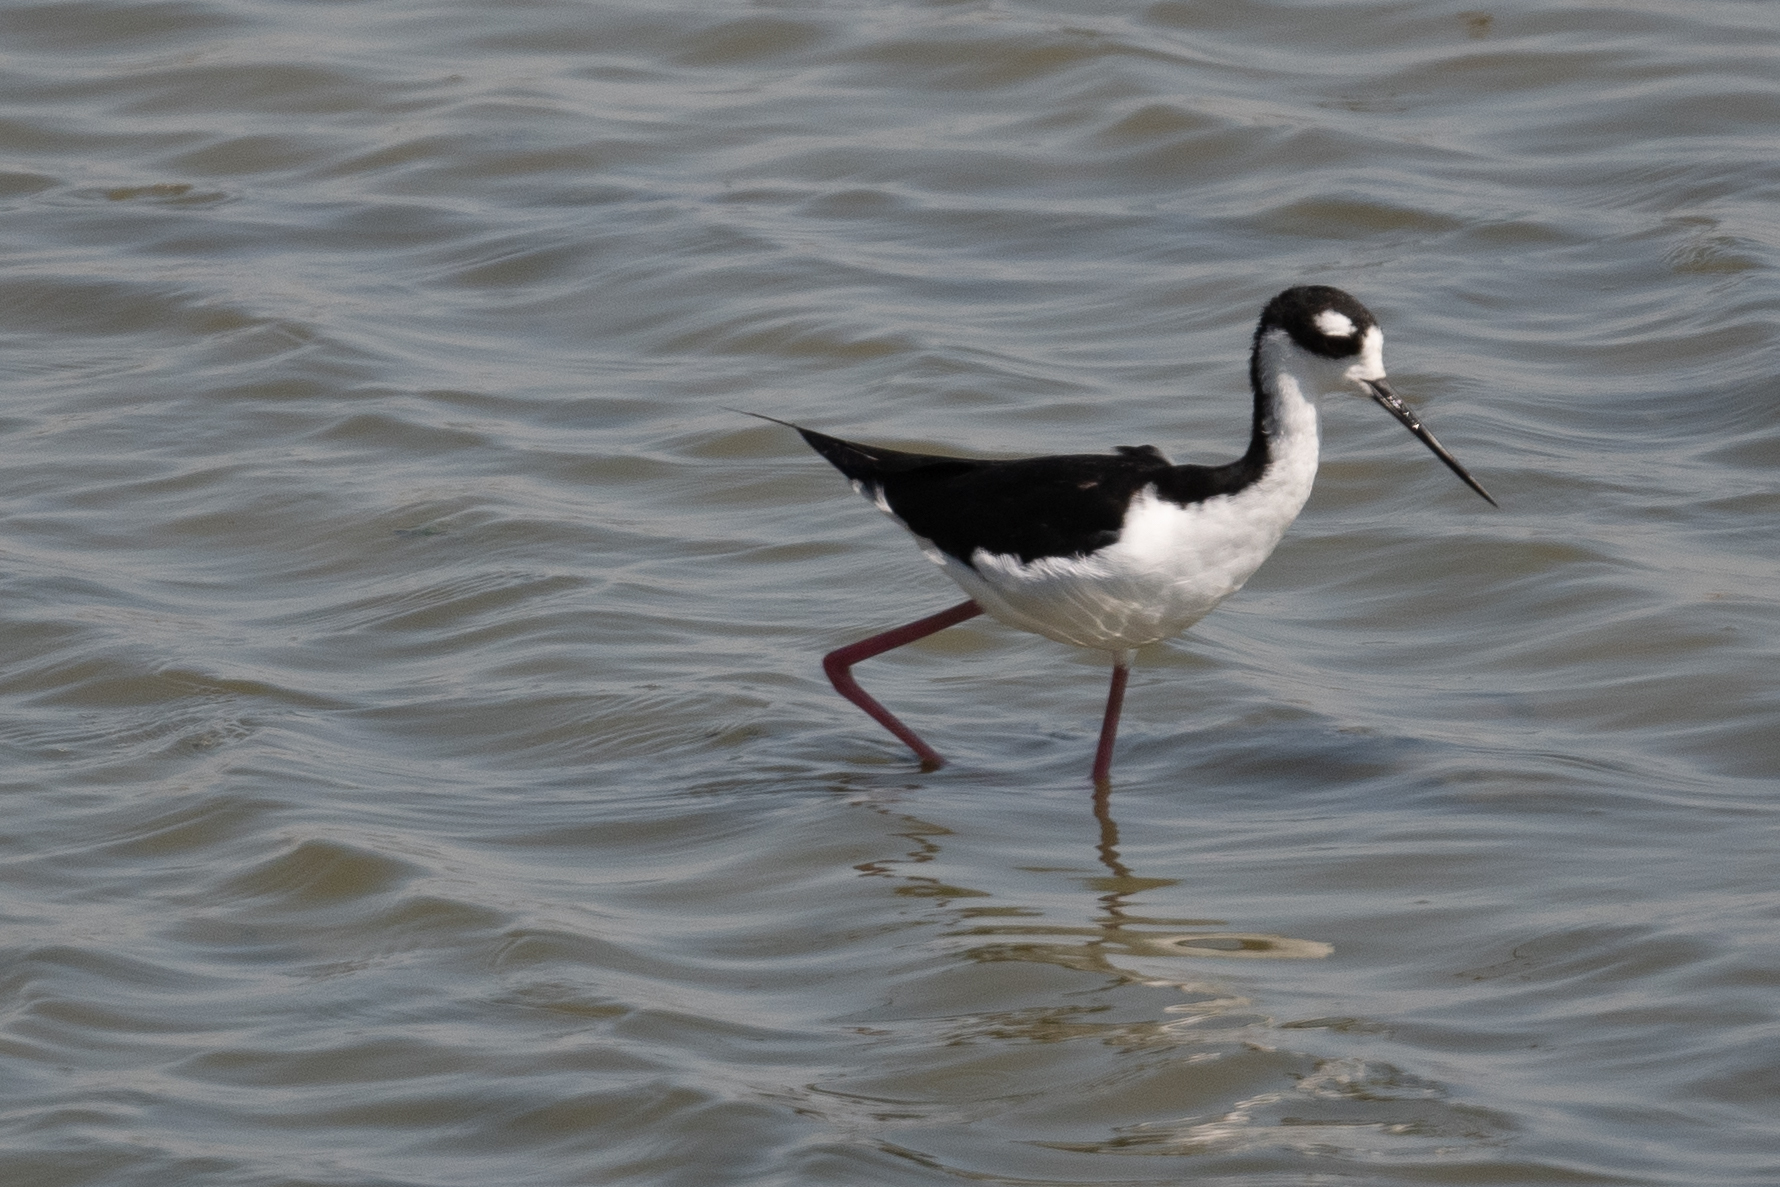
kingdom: Animalia
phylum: Chordata
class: Aves
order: Charadriiformes
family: Recurvirostridae
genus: Himantopus
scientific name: Himantopus mexicanus
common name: Black-necked stilt
